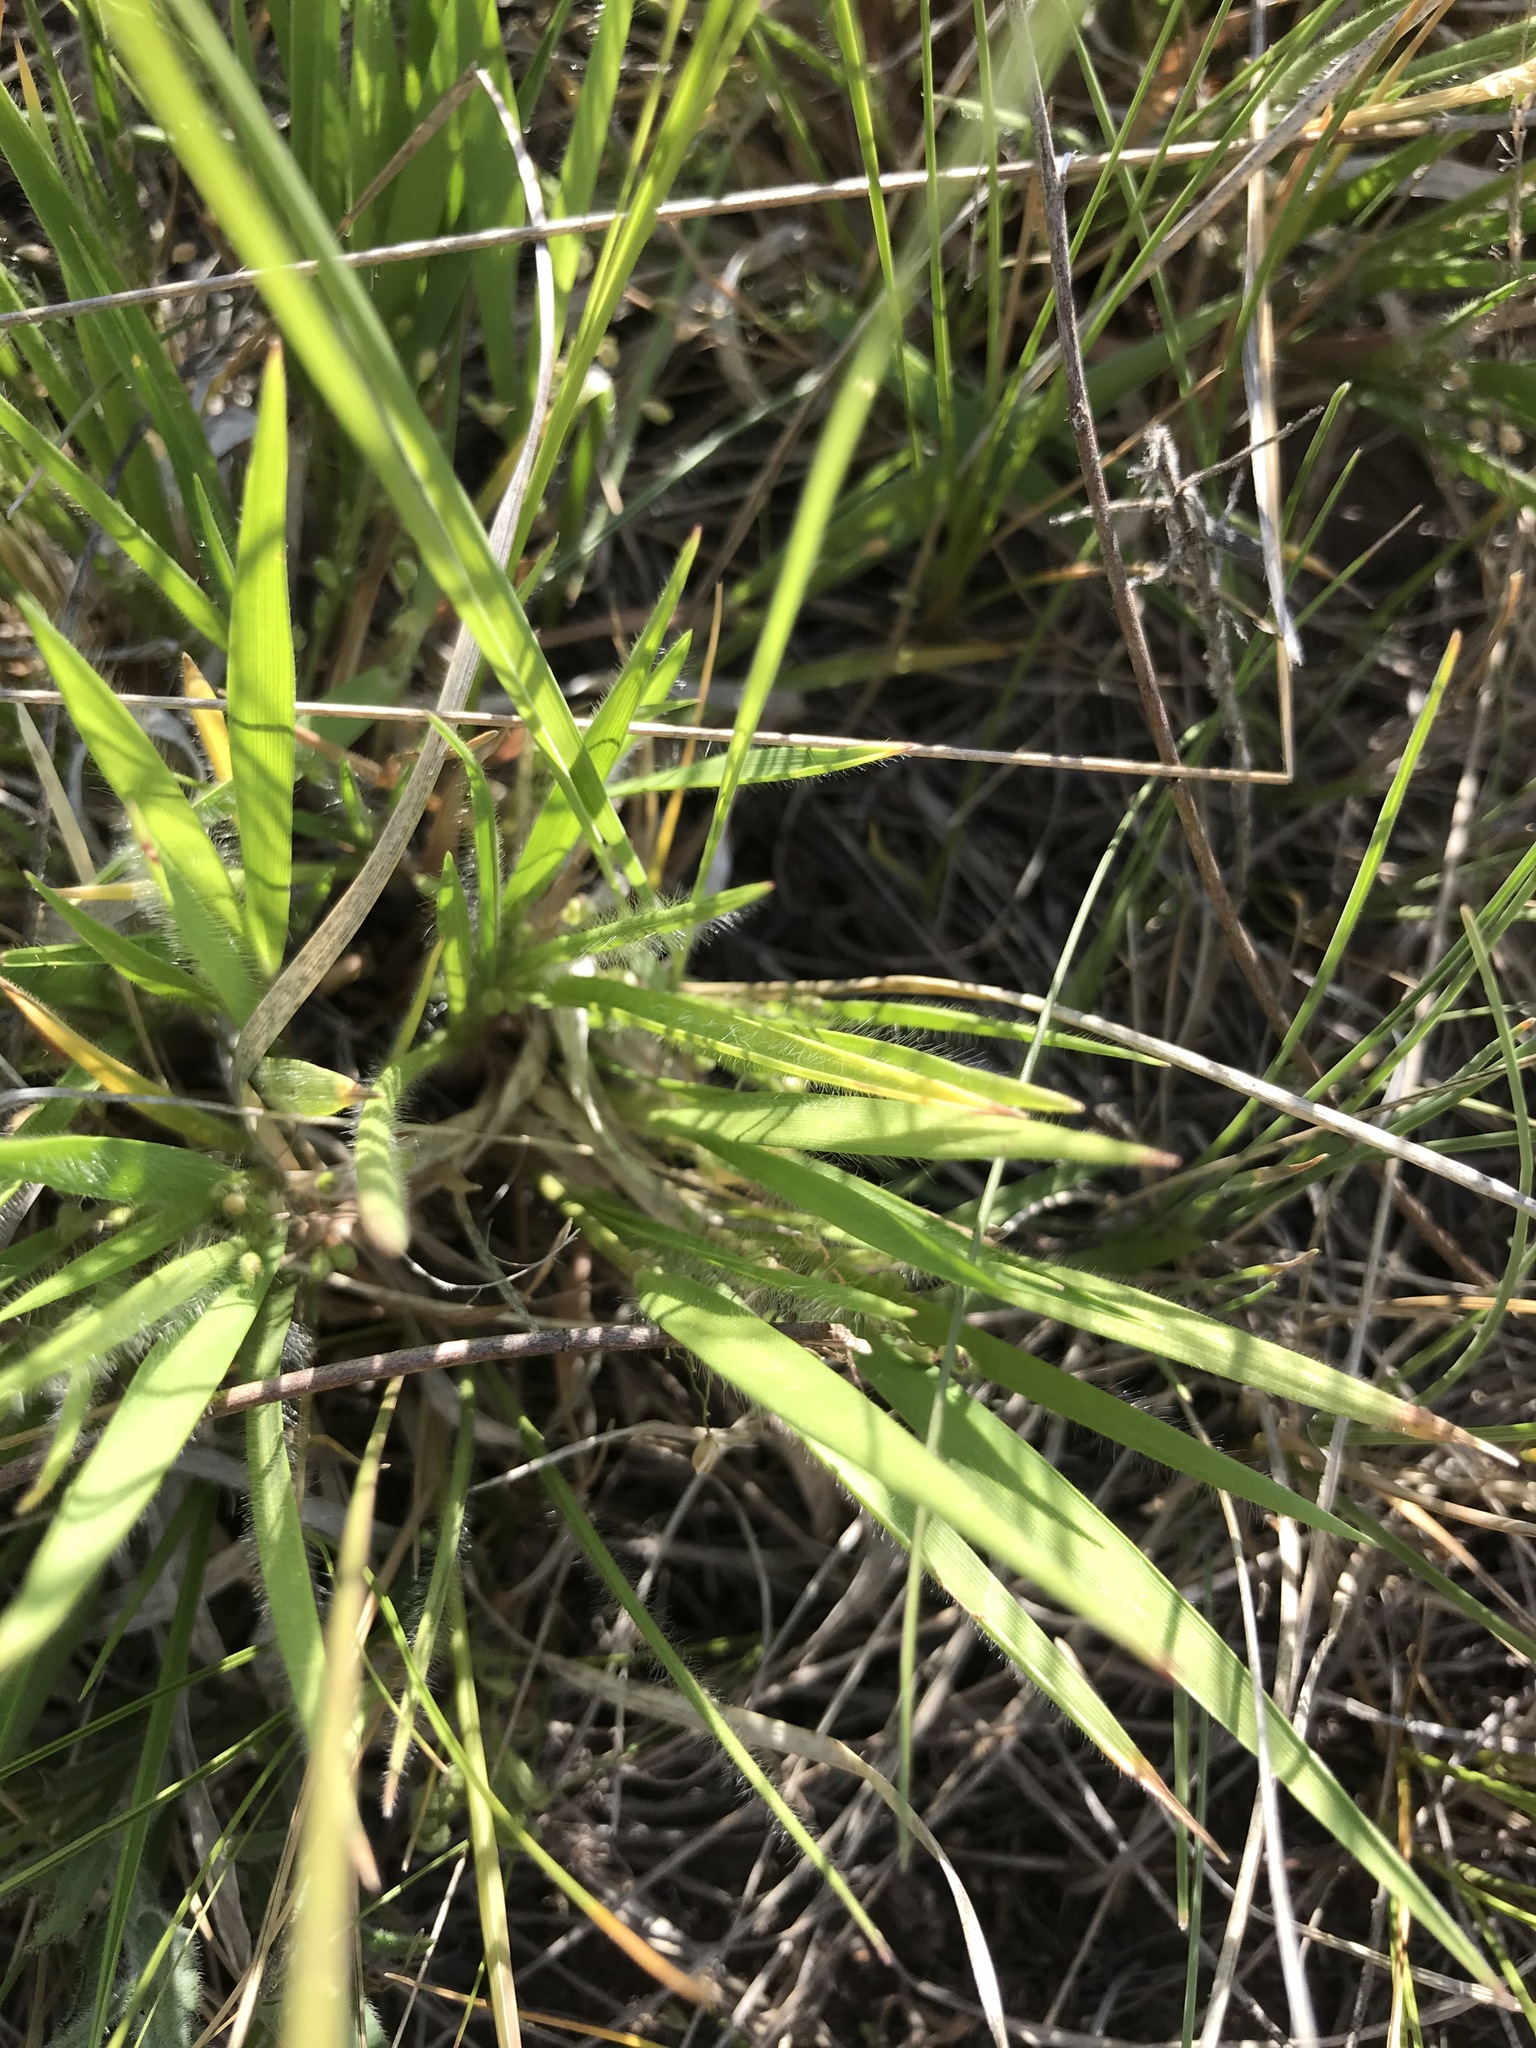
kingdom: Plantae
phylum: Tracheophyta
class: Liliopsida
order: Poales
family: Poaceae
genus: Dichanthelium
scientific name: Dichanthelium wilcoxianum
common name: Wilcox's panicgrass
